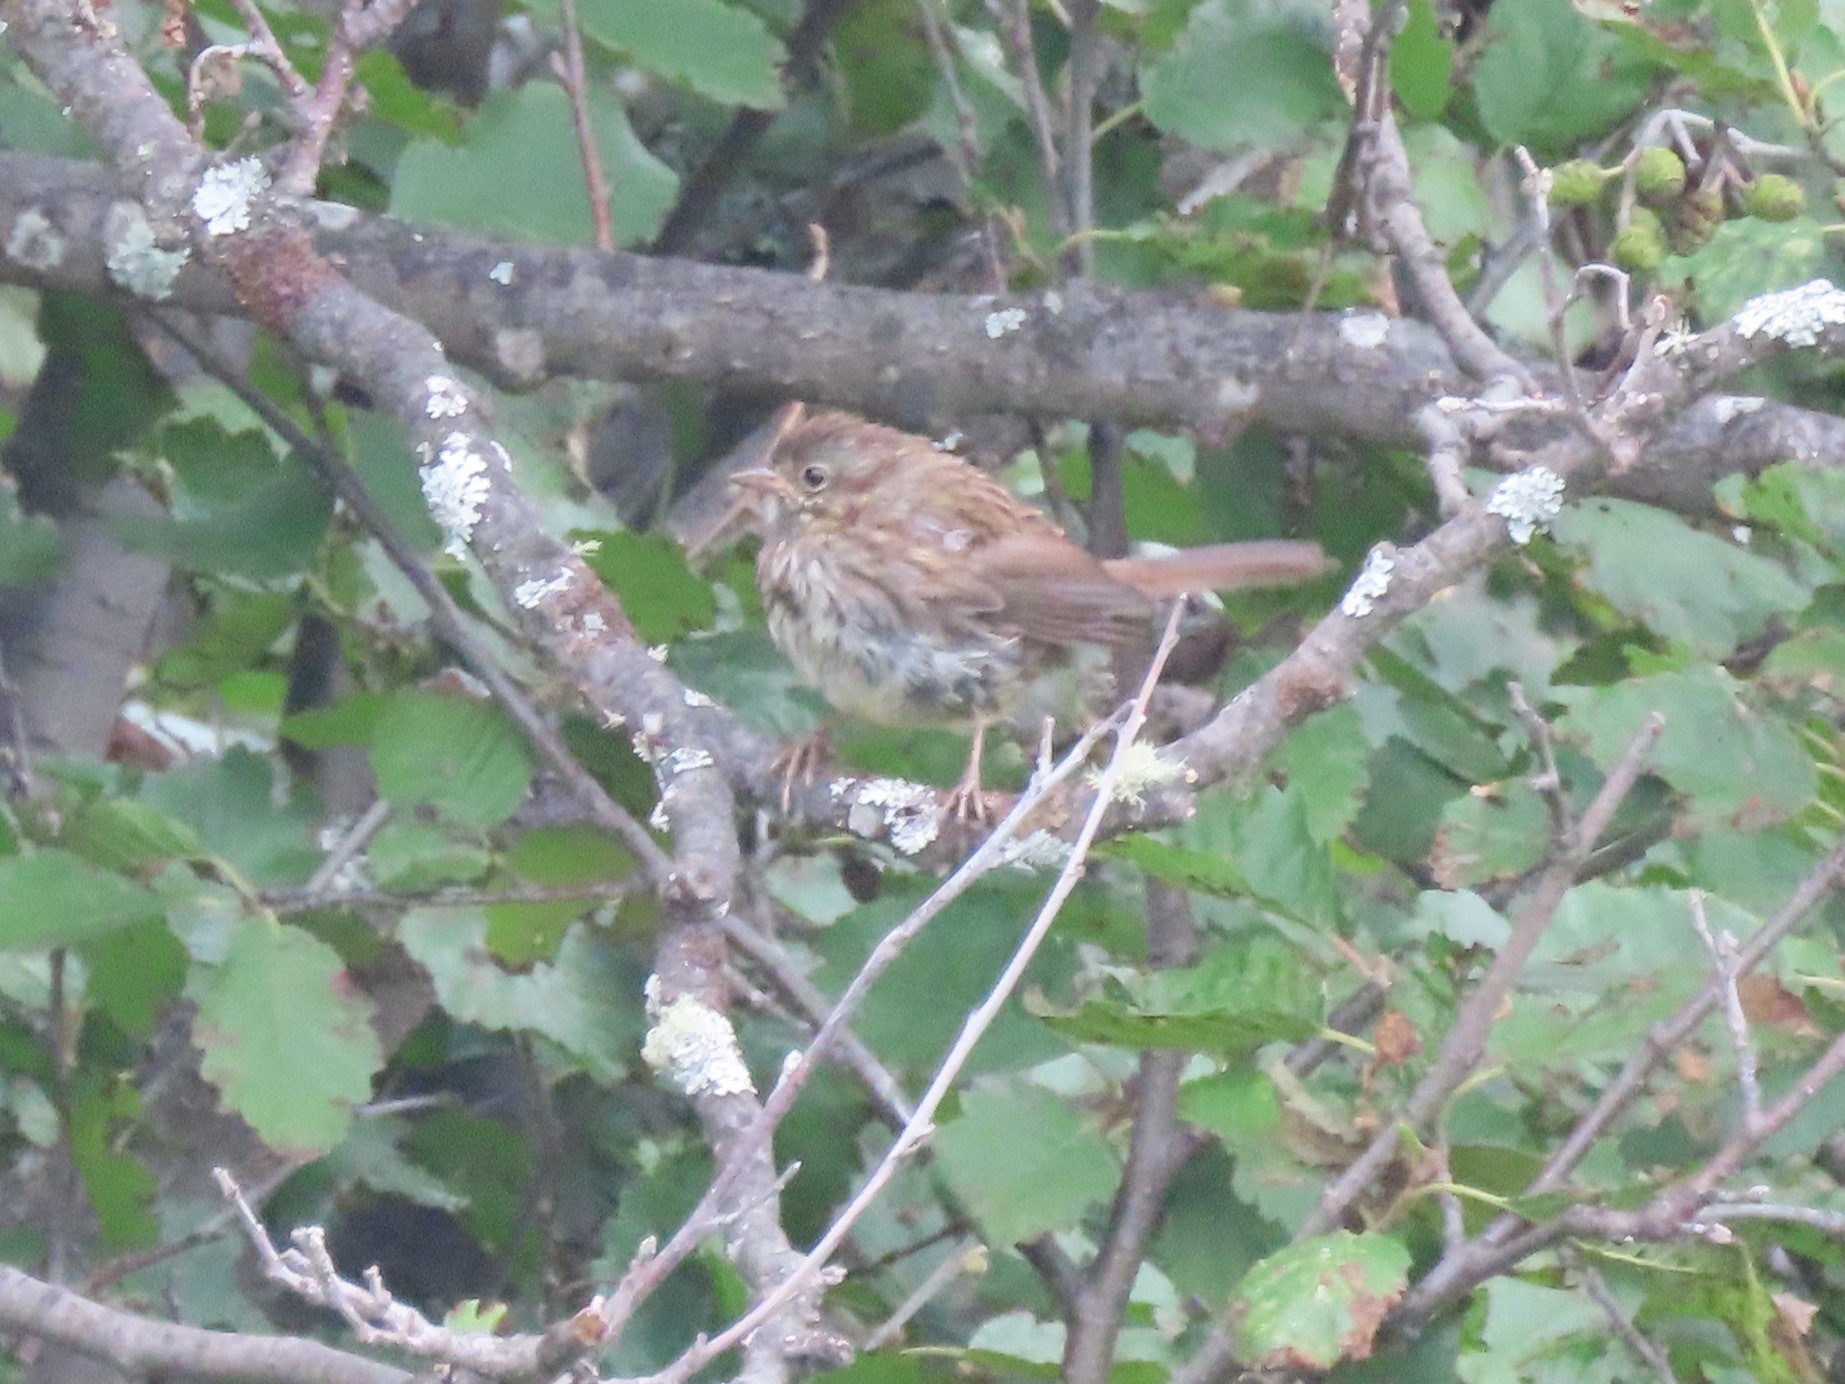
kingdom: Animalia
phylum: Chordata
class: Aves
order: Passeriformes
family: Passerellidae
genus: Melospiza
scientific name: Melospiza melodia
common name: Song sparrow
